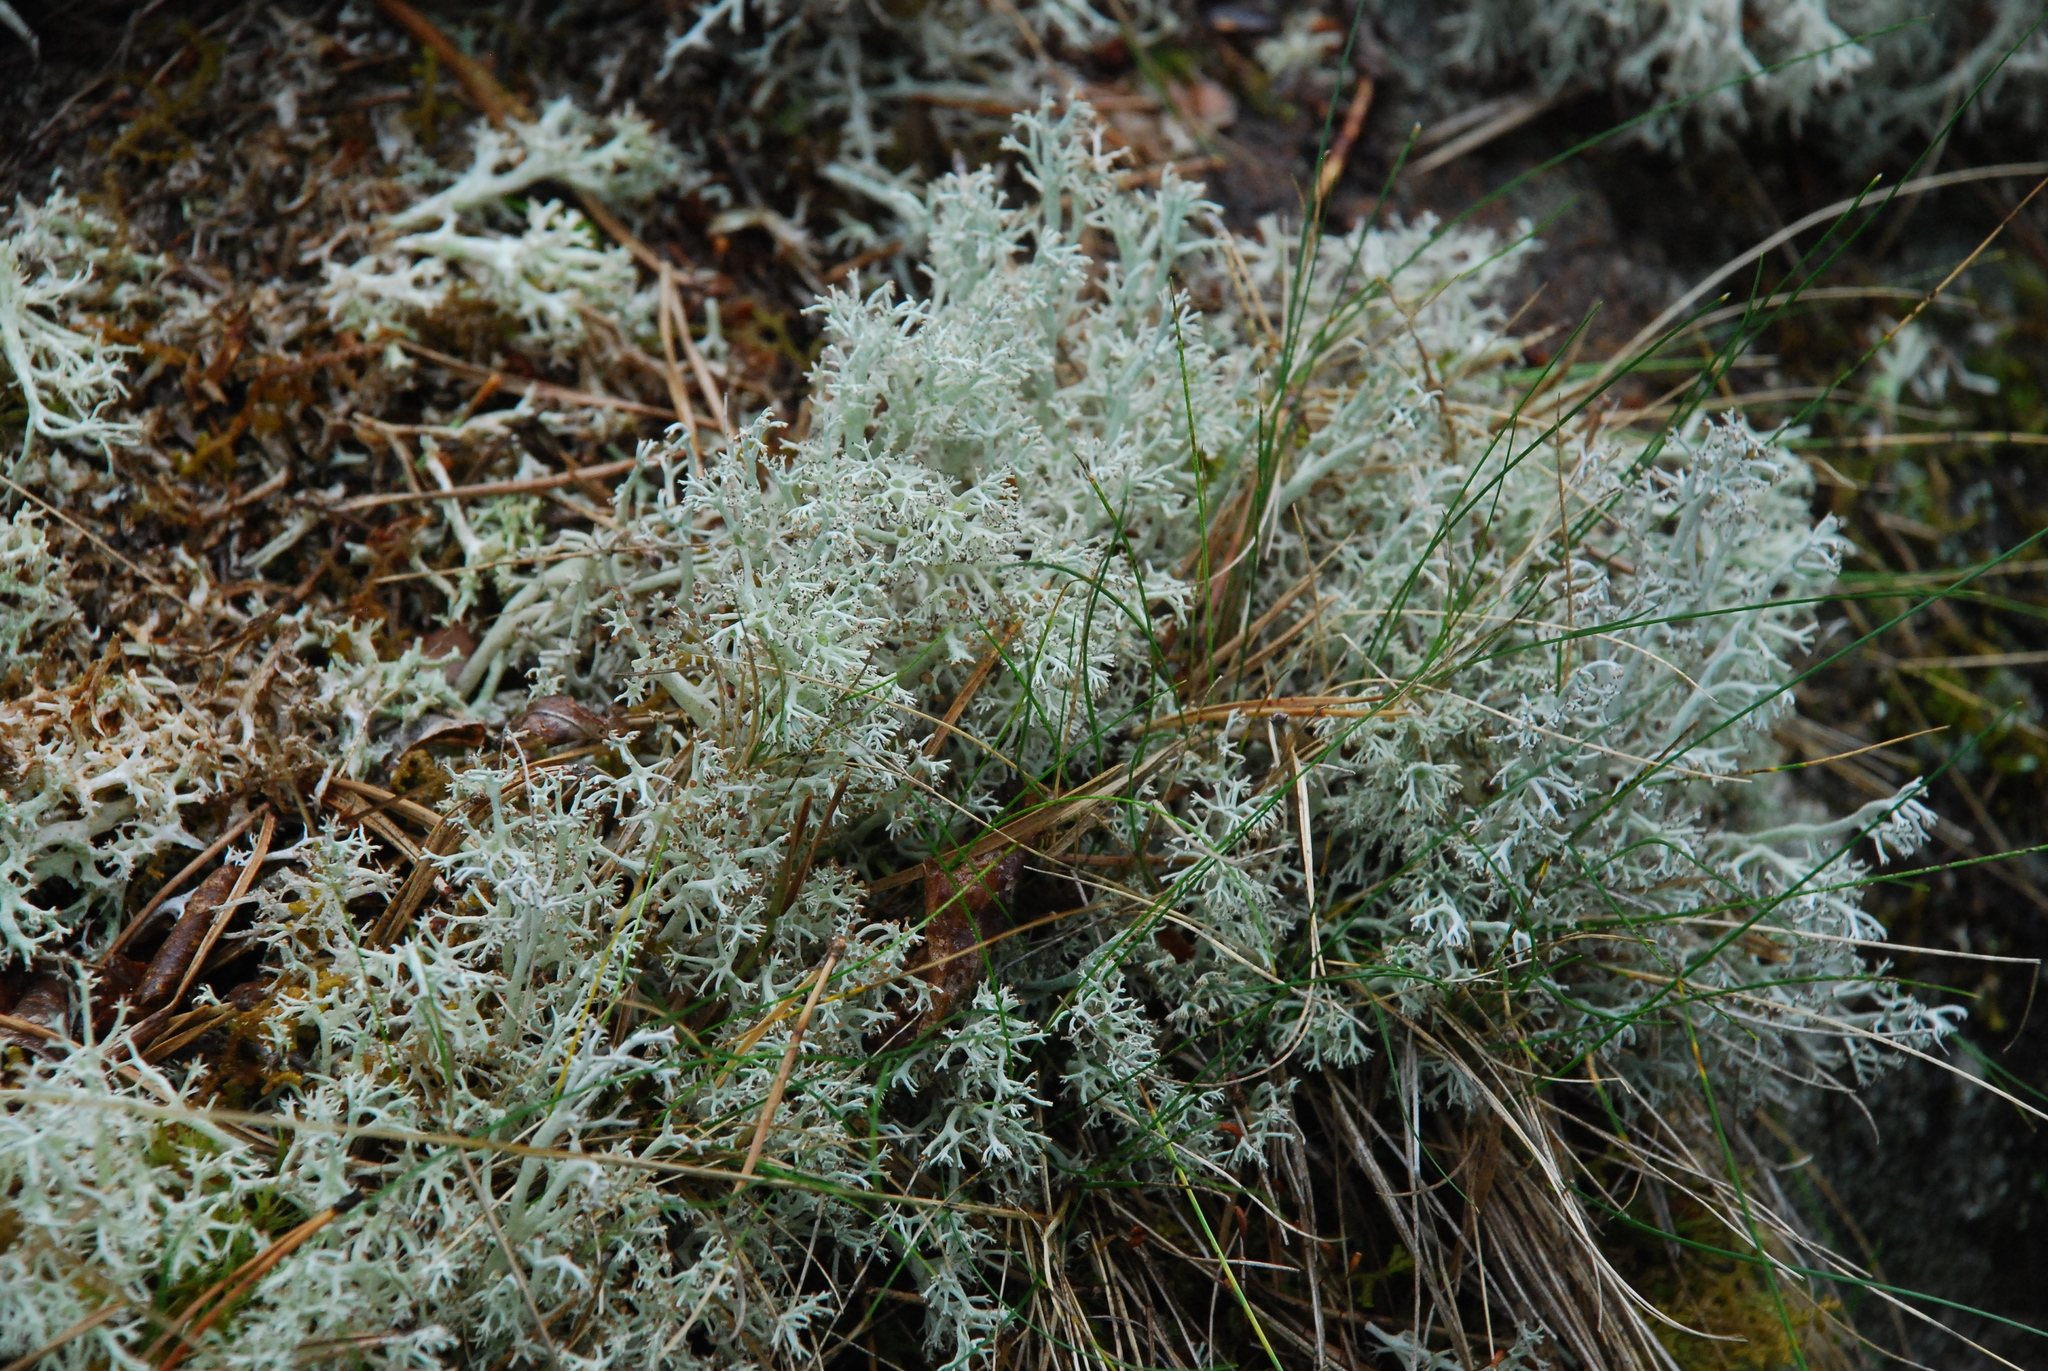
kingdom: Fungi
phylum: Ascomycota
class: Lecanoromycetes
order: Lecanorales
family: Cladoniaceae
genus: Cladonia
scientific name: Cladonia arbuscula
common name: Reindeer lichen
